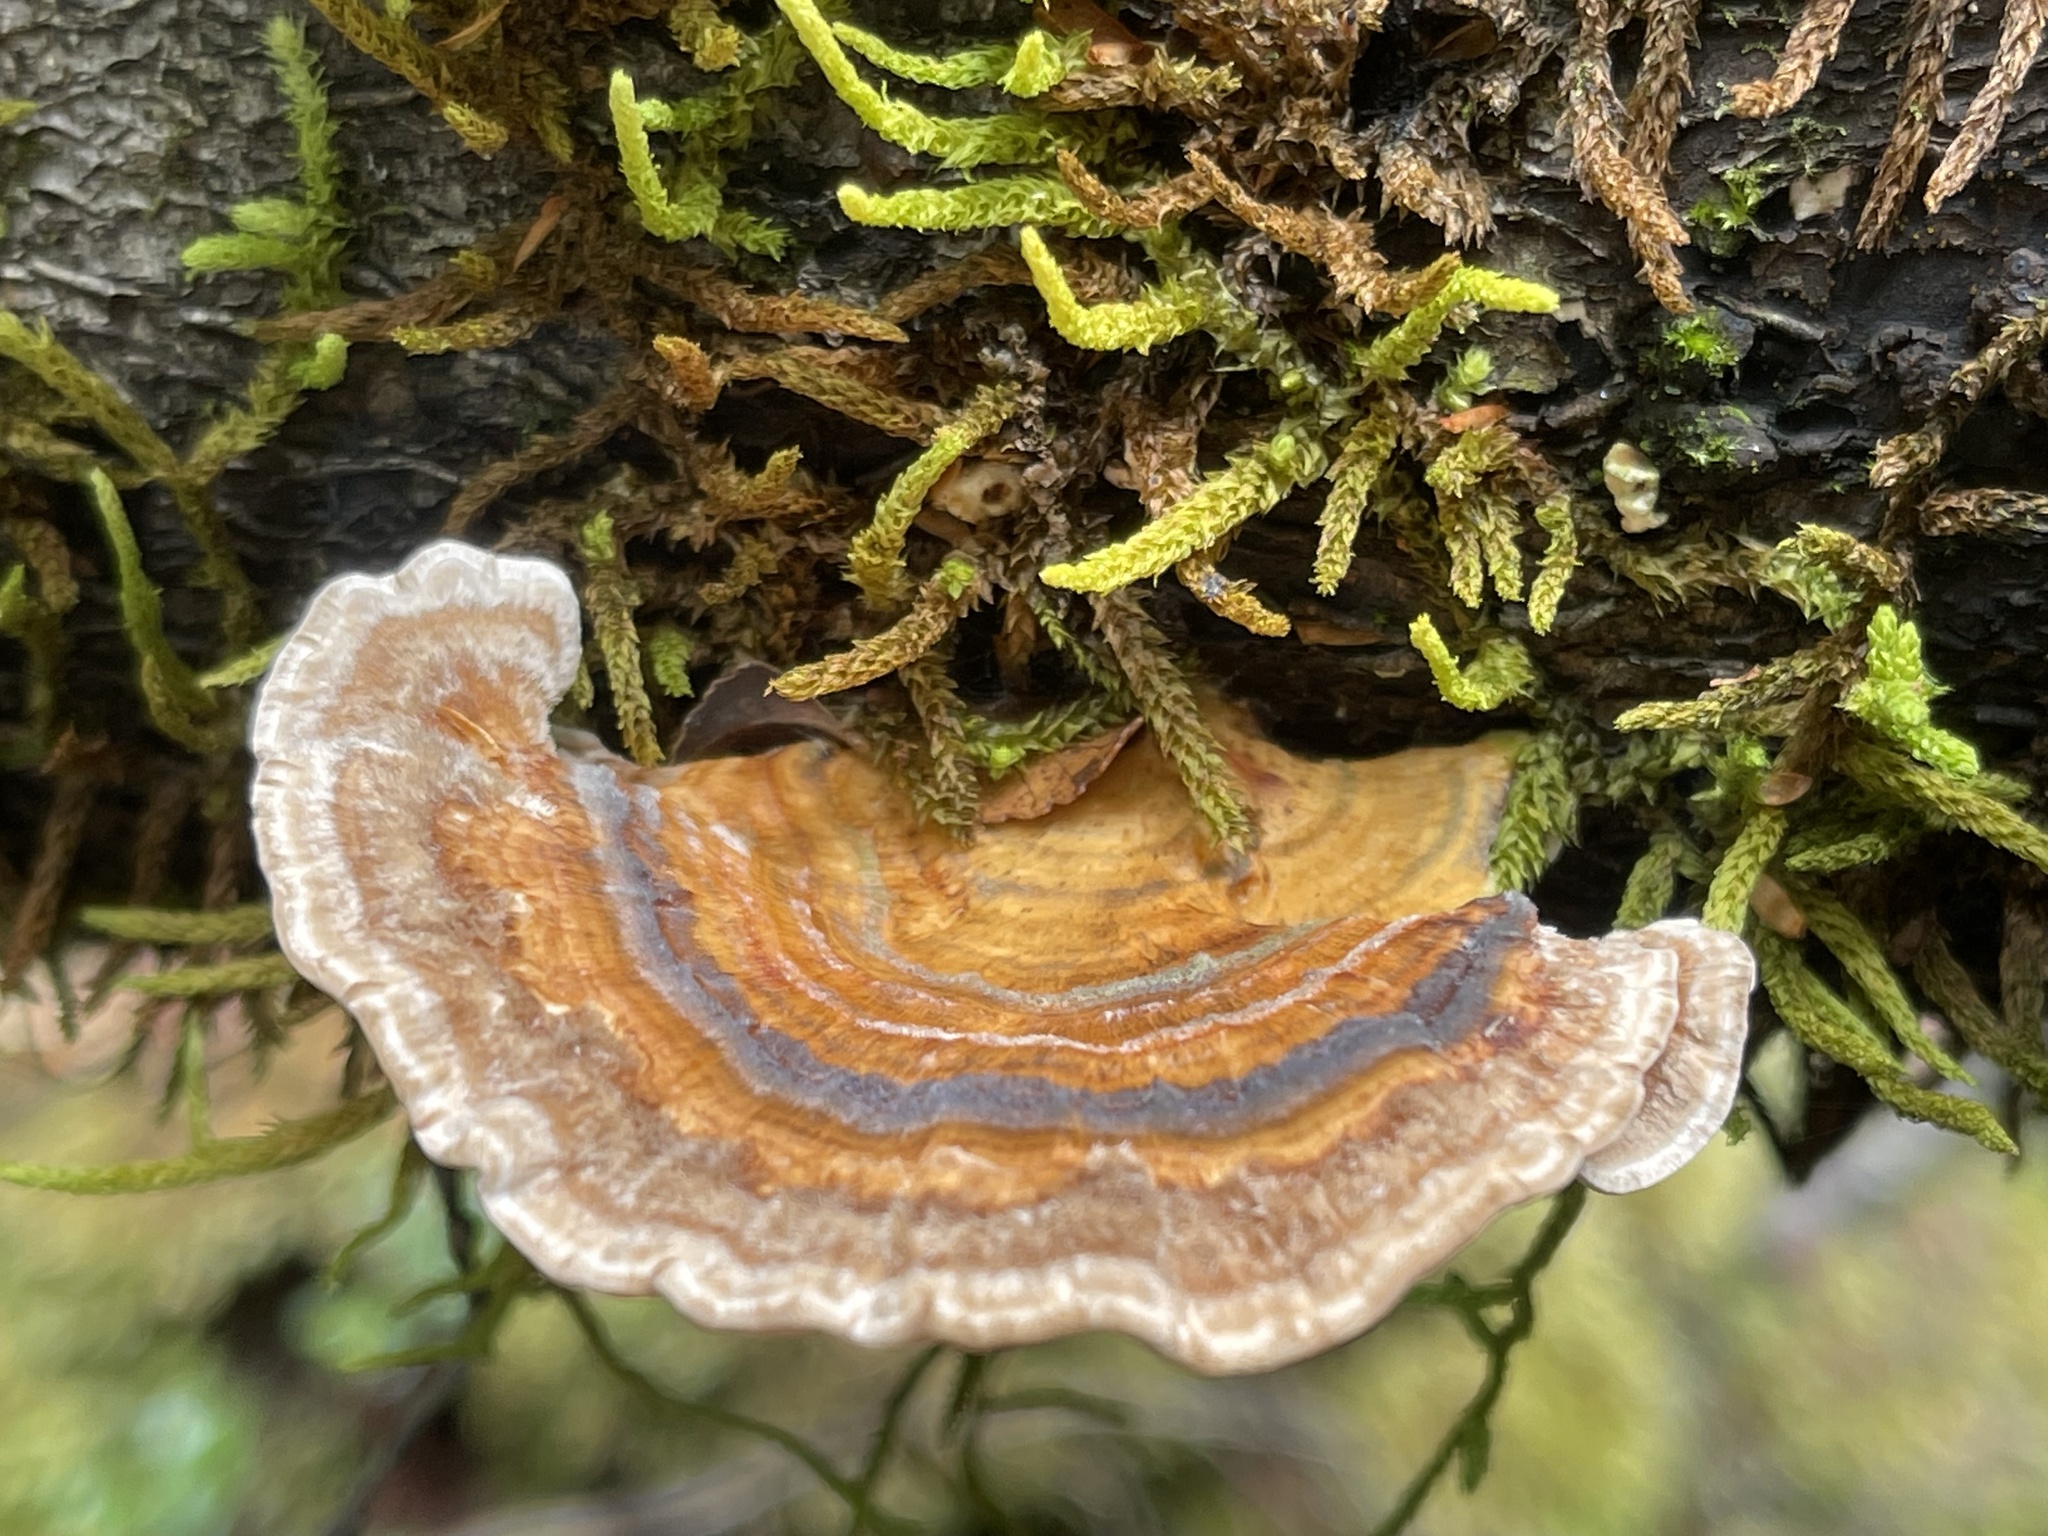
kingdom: Fungi
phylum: Basidiomycota
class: Agaricomycetes
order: Polyporales
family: Polyporaceae
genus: Trametes
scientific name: Trametes versicolor
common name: Turkeytail
